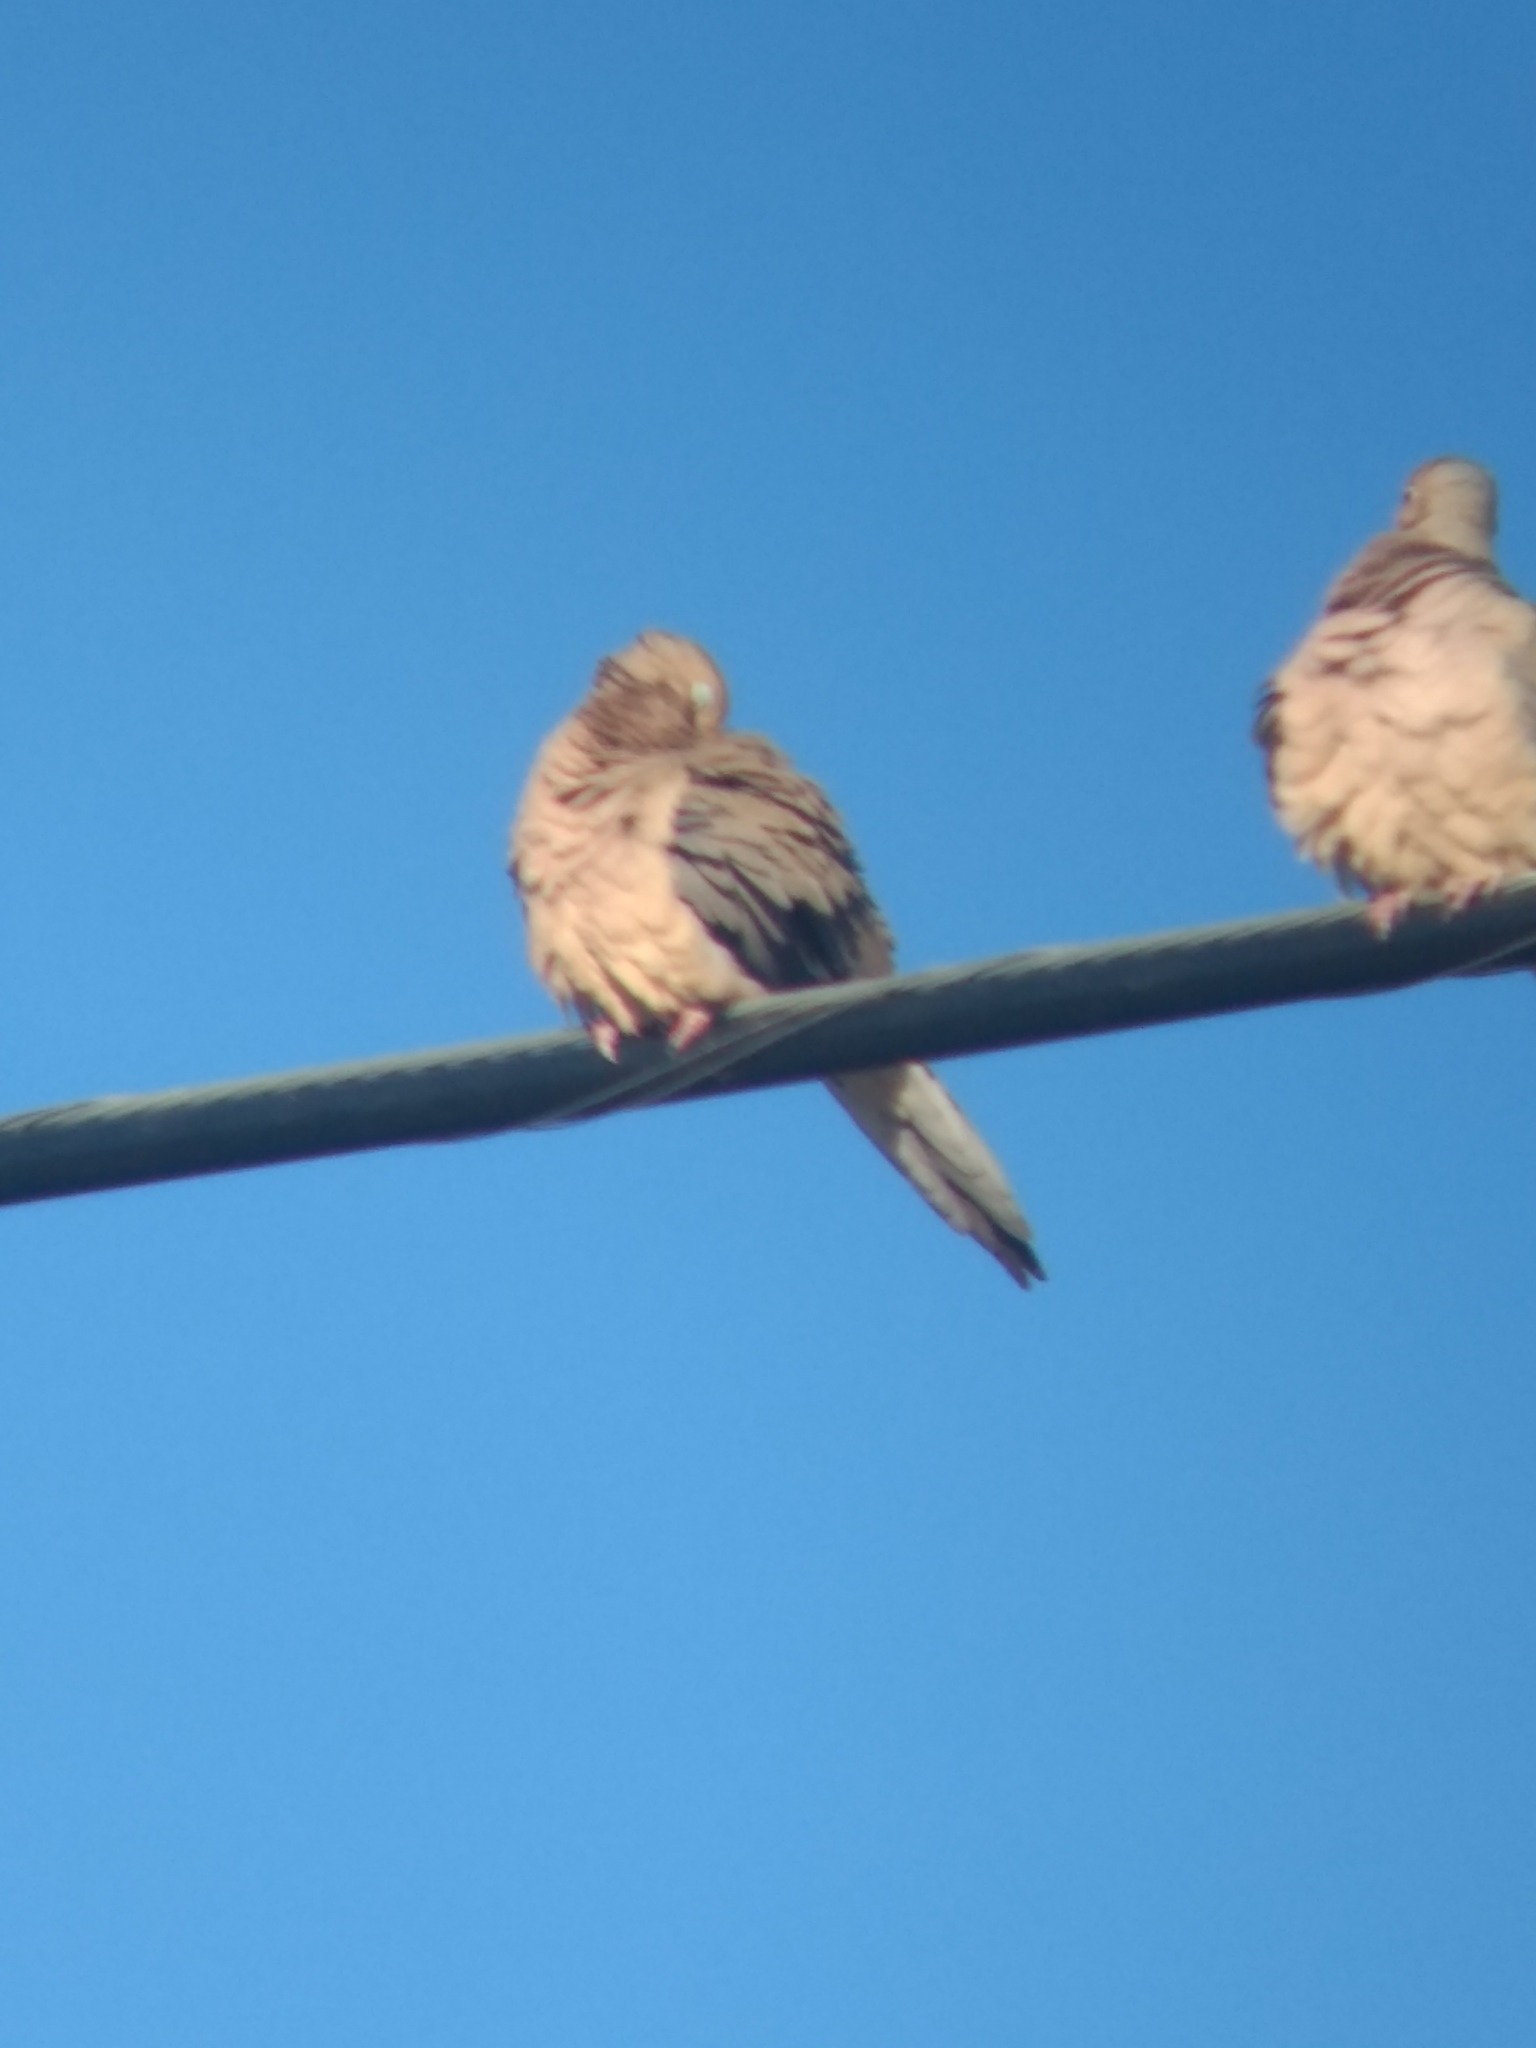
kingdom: Animalia
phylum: Chordata
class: Aves
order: Columbiformes
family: Columbidae
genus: Zenaida
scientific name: Zenaida macroura
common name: Mourning dove
